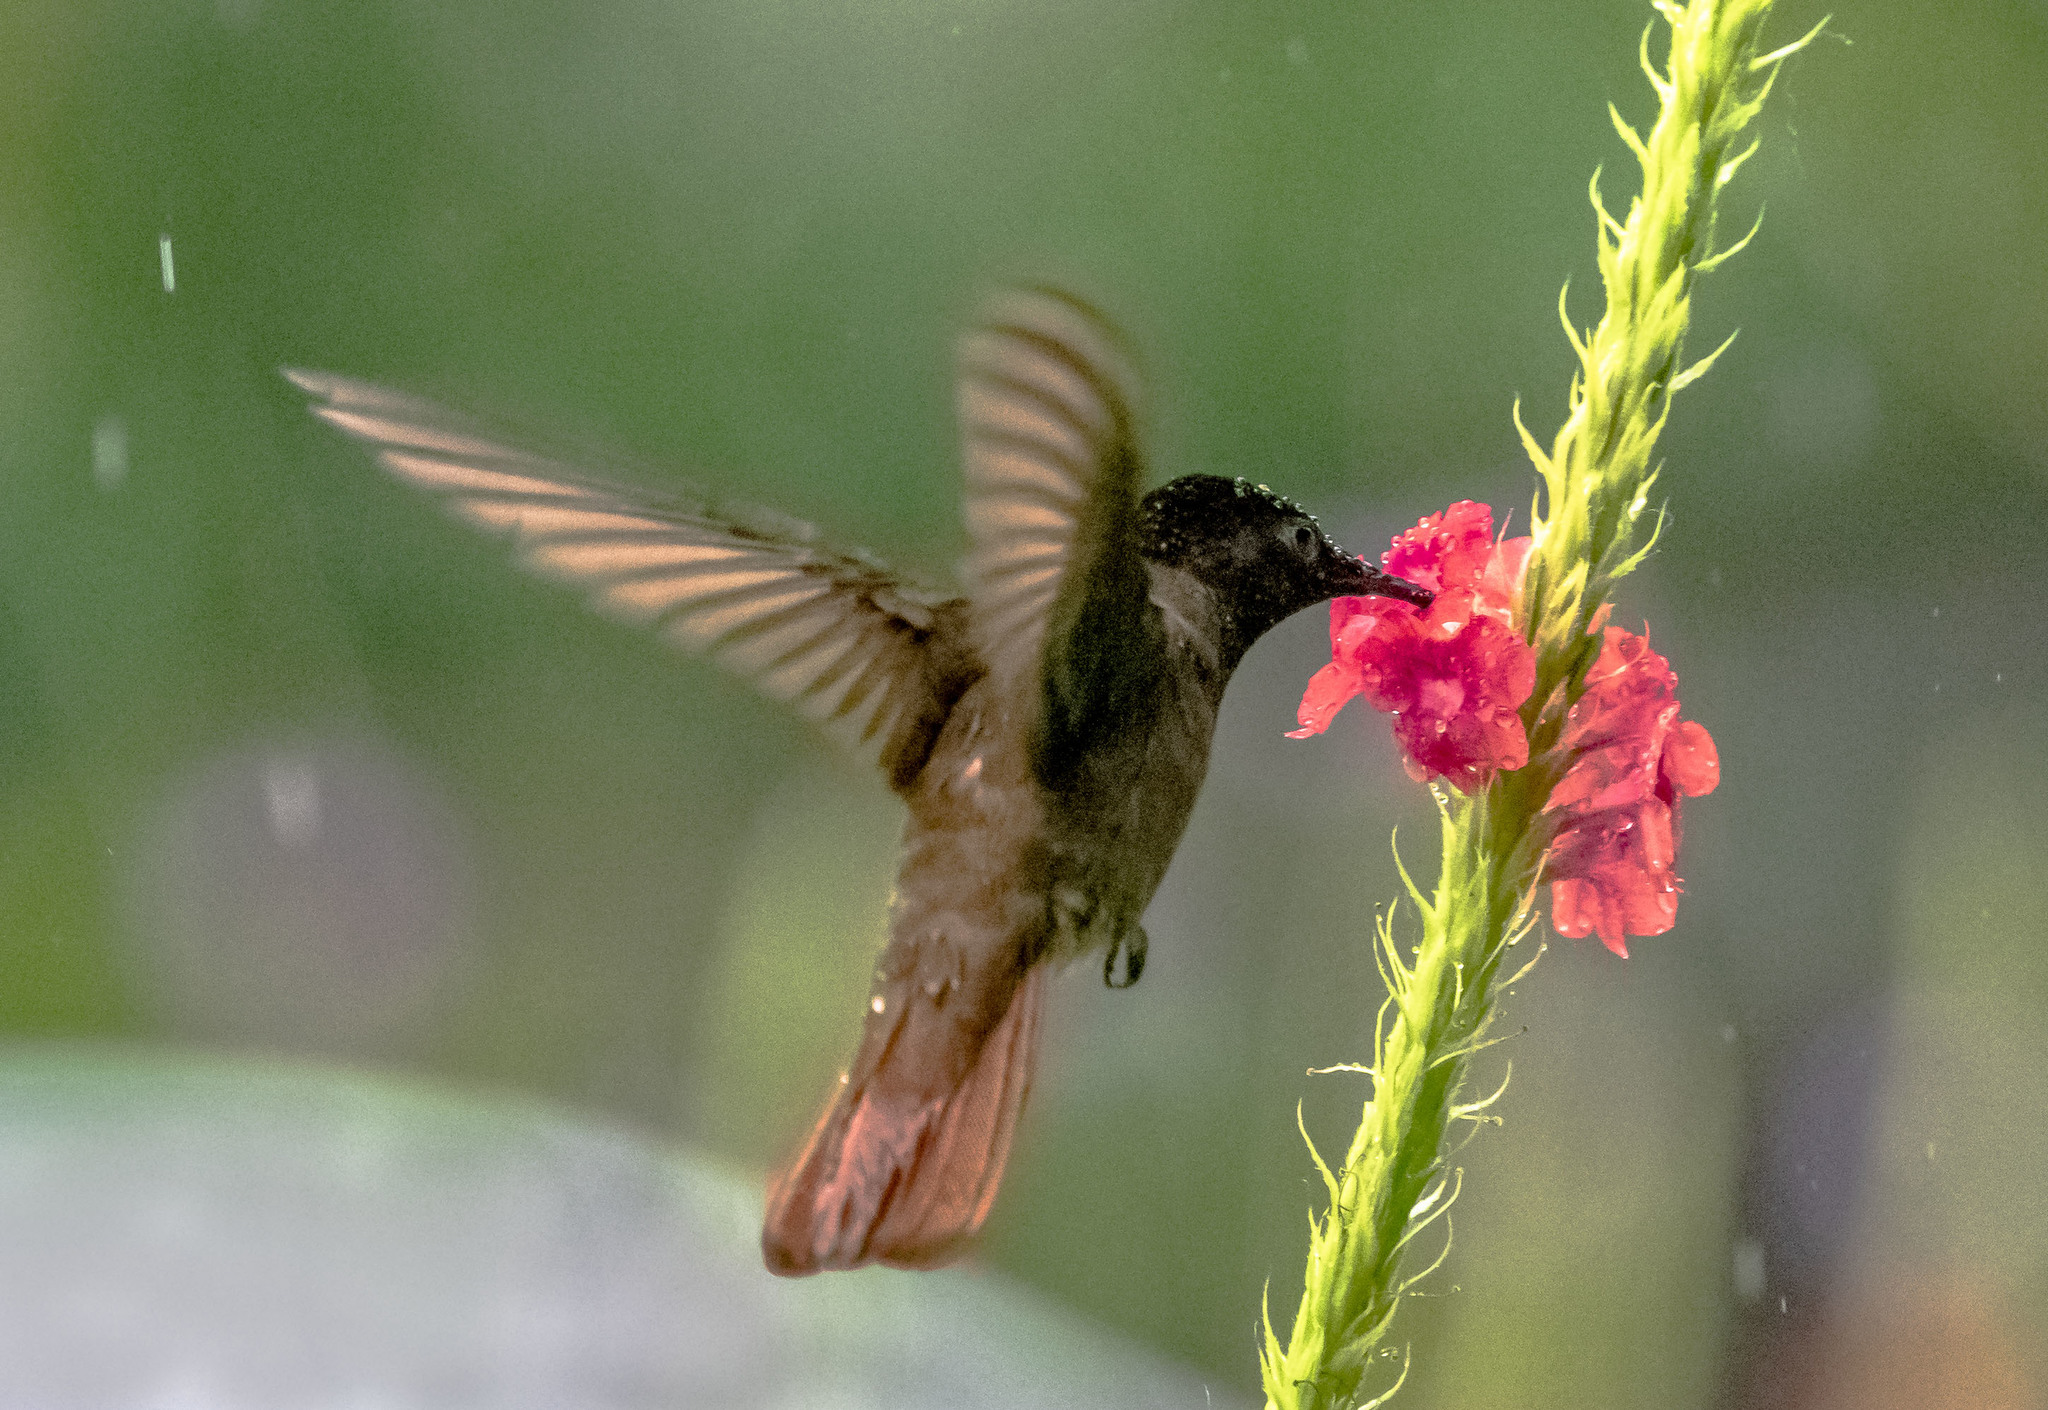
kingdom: Animalia
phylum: Chordata
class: Aves
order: Apodiformes
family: Trochilidae
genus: Chrysolampis
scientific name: Chrysolampis mosquitus
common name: Ruby-topaz hummingbird
